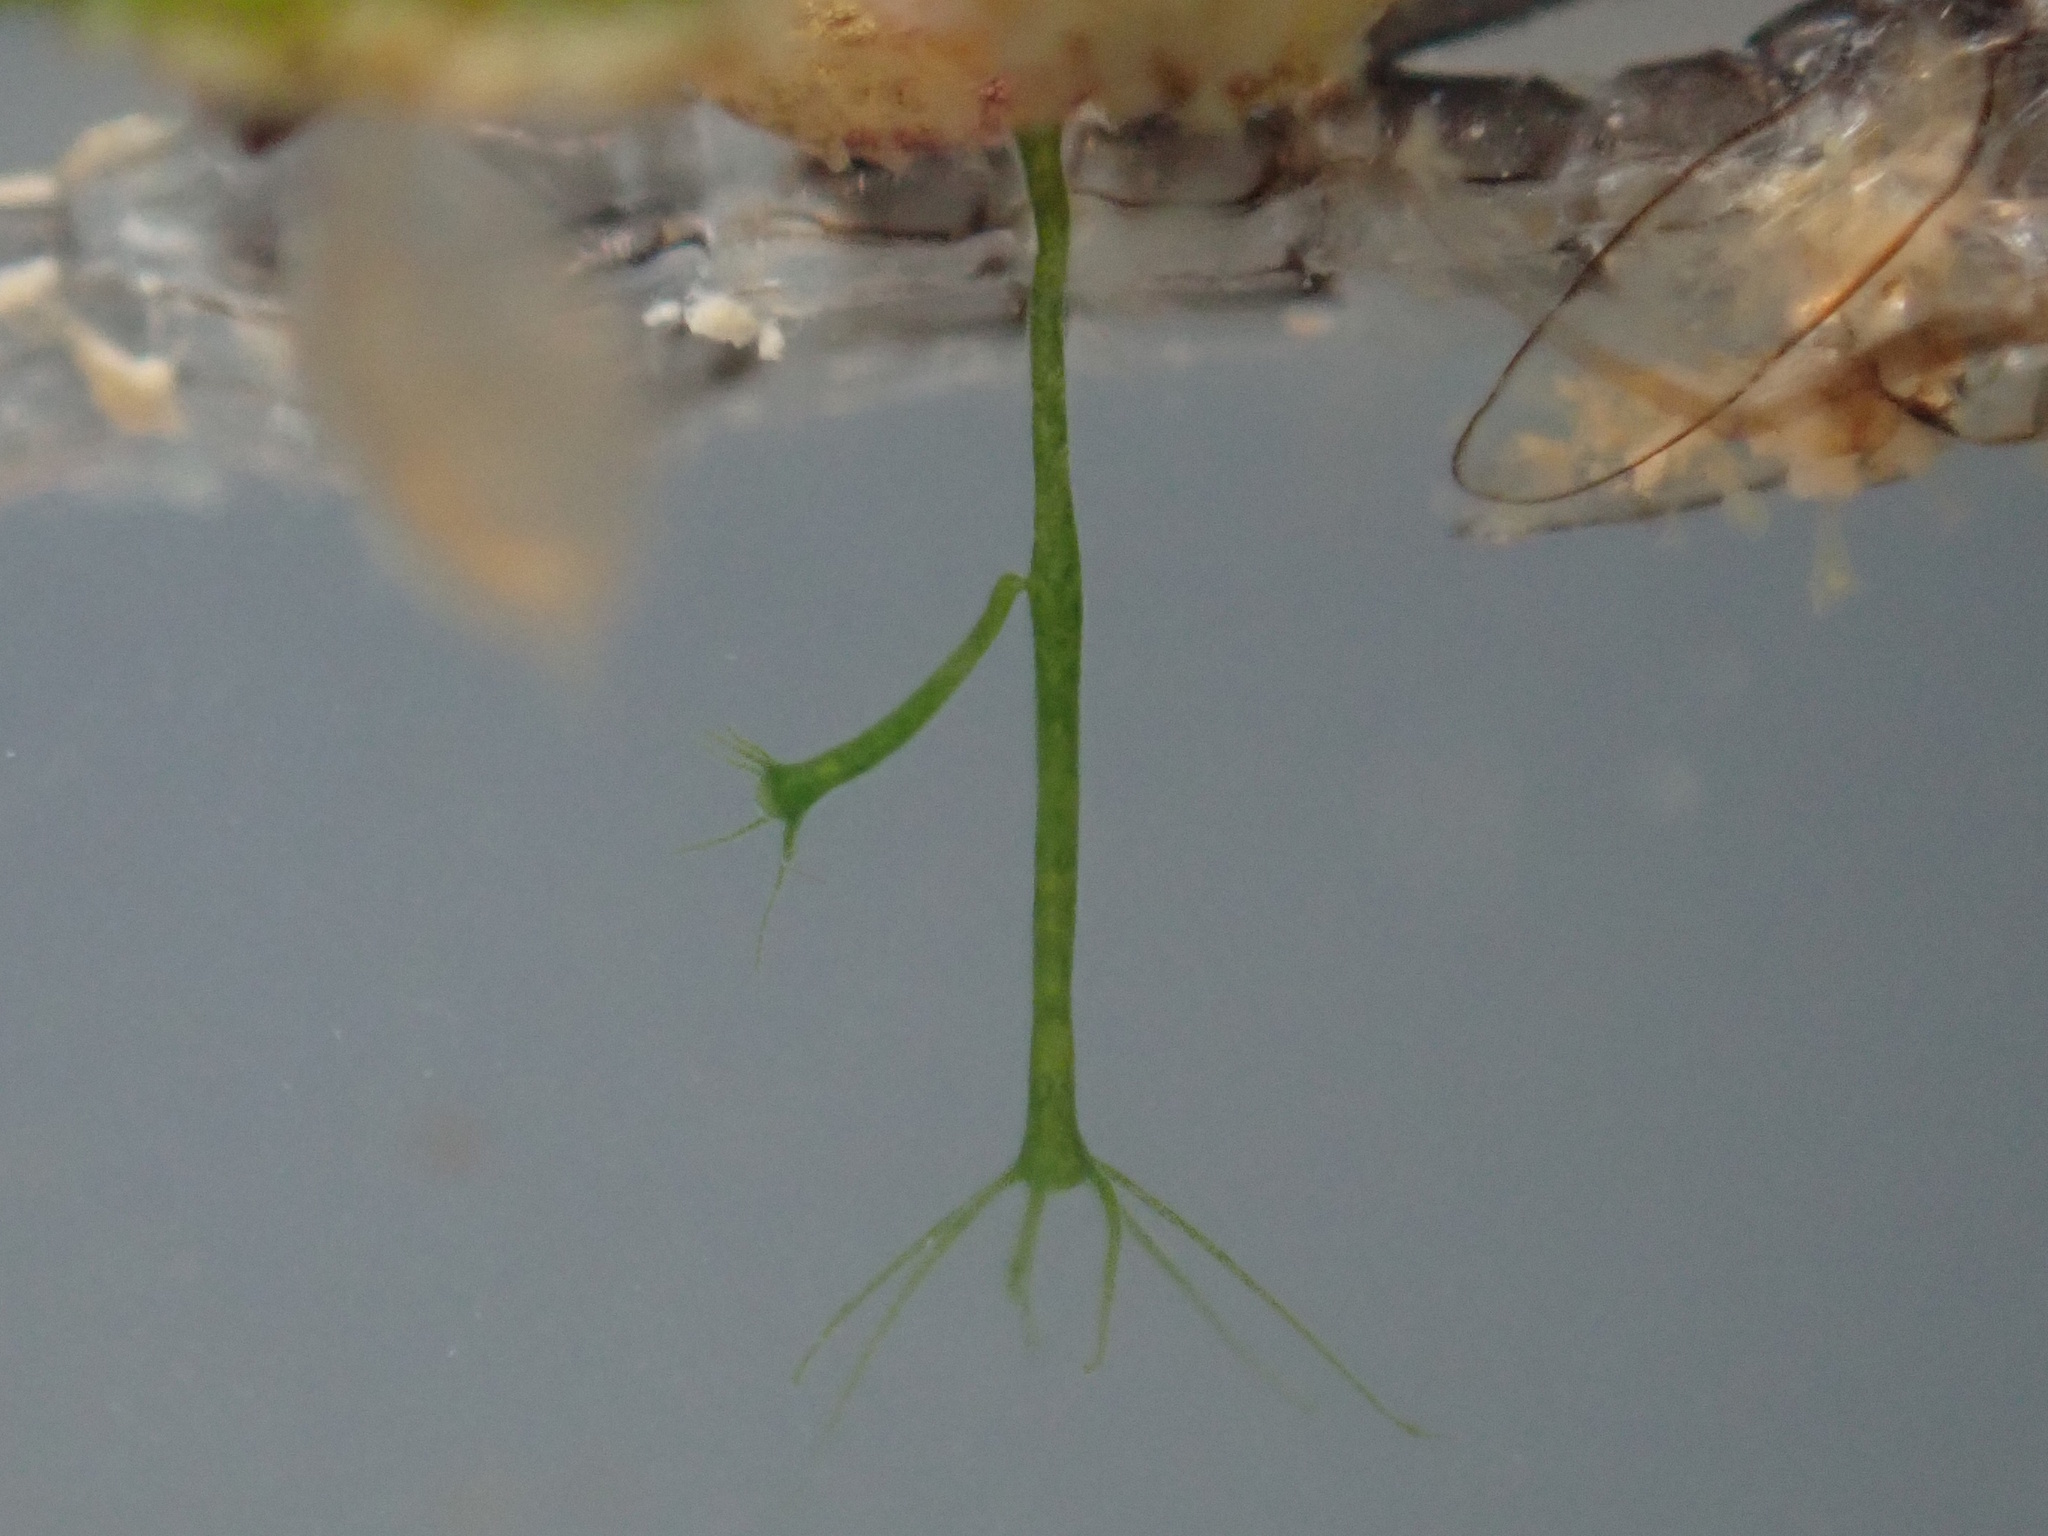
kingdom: Animalia
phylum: Cnidaria
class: Hydrozoa
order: Anthoathecata
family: Hydridae
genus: Hydra
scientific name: Hydra viridissima
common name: Green hydra
